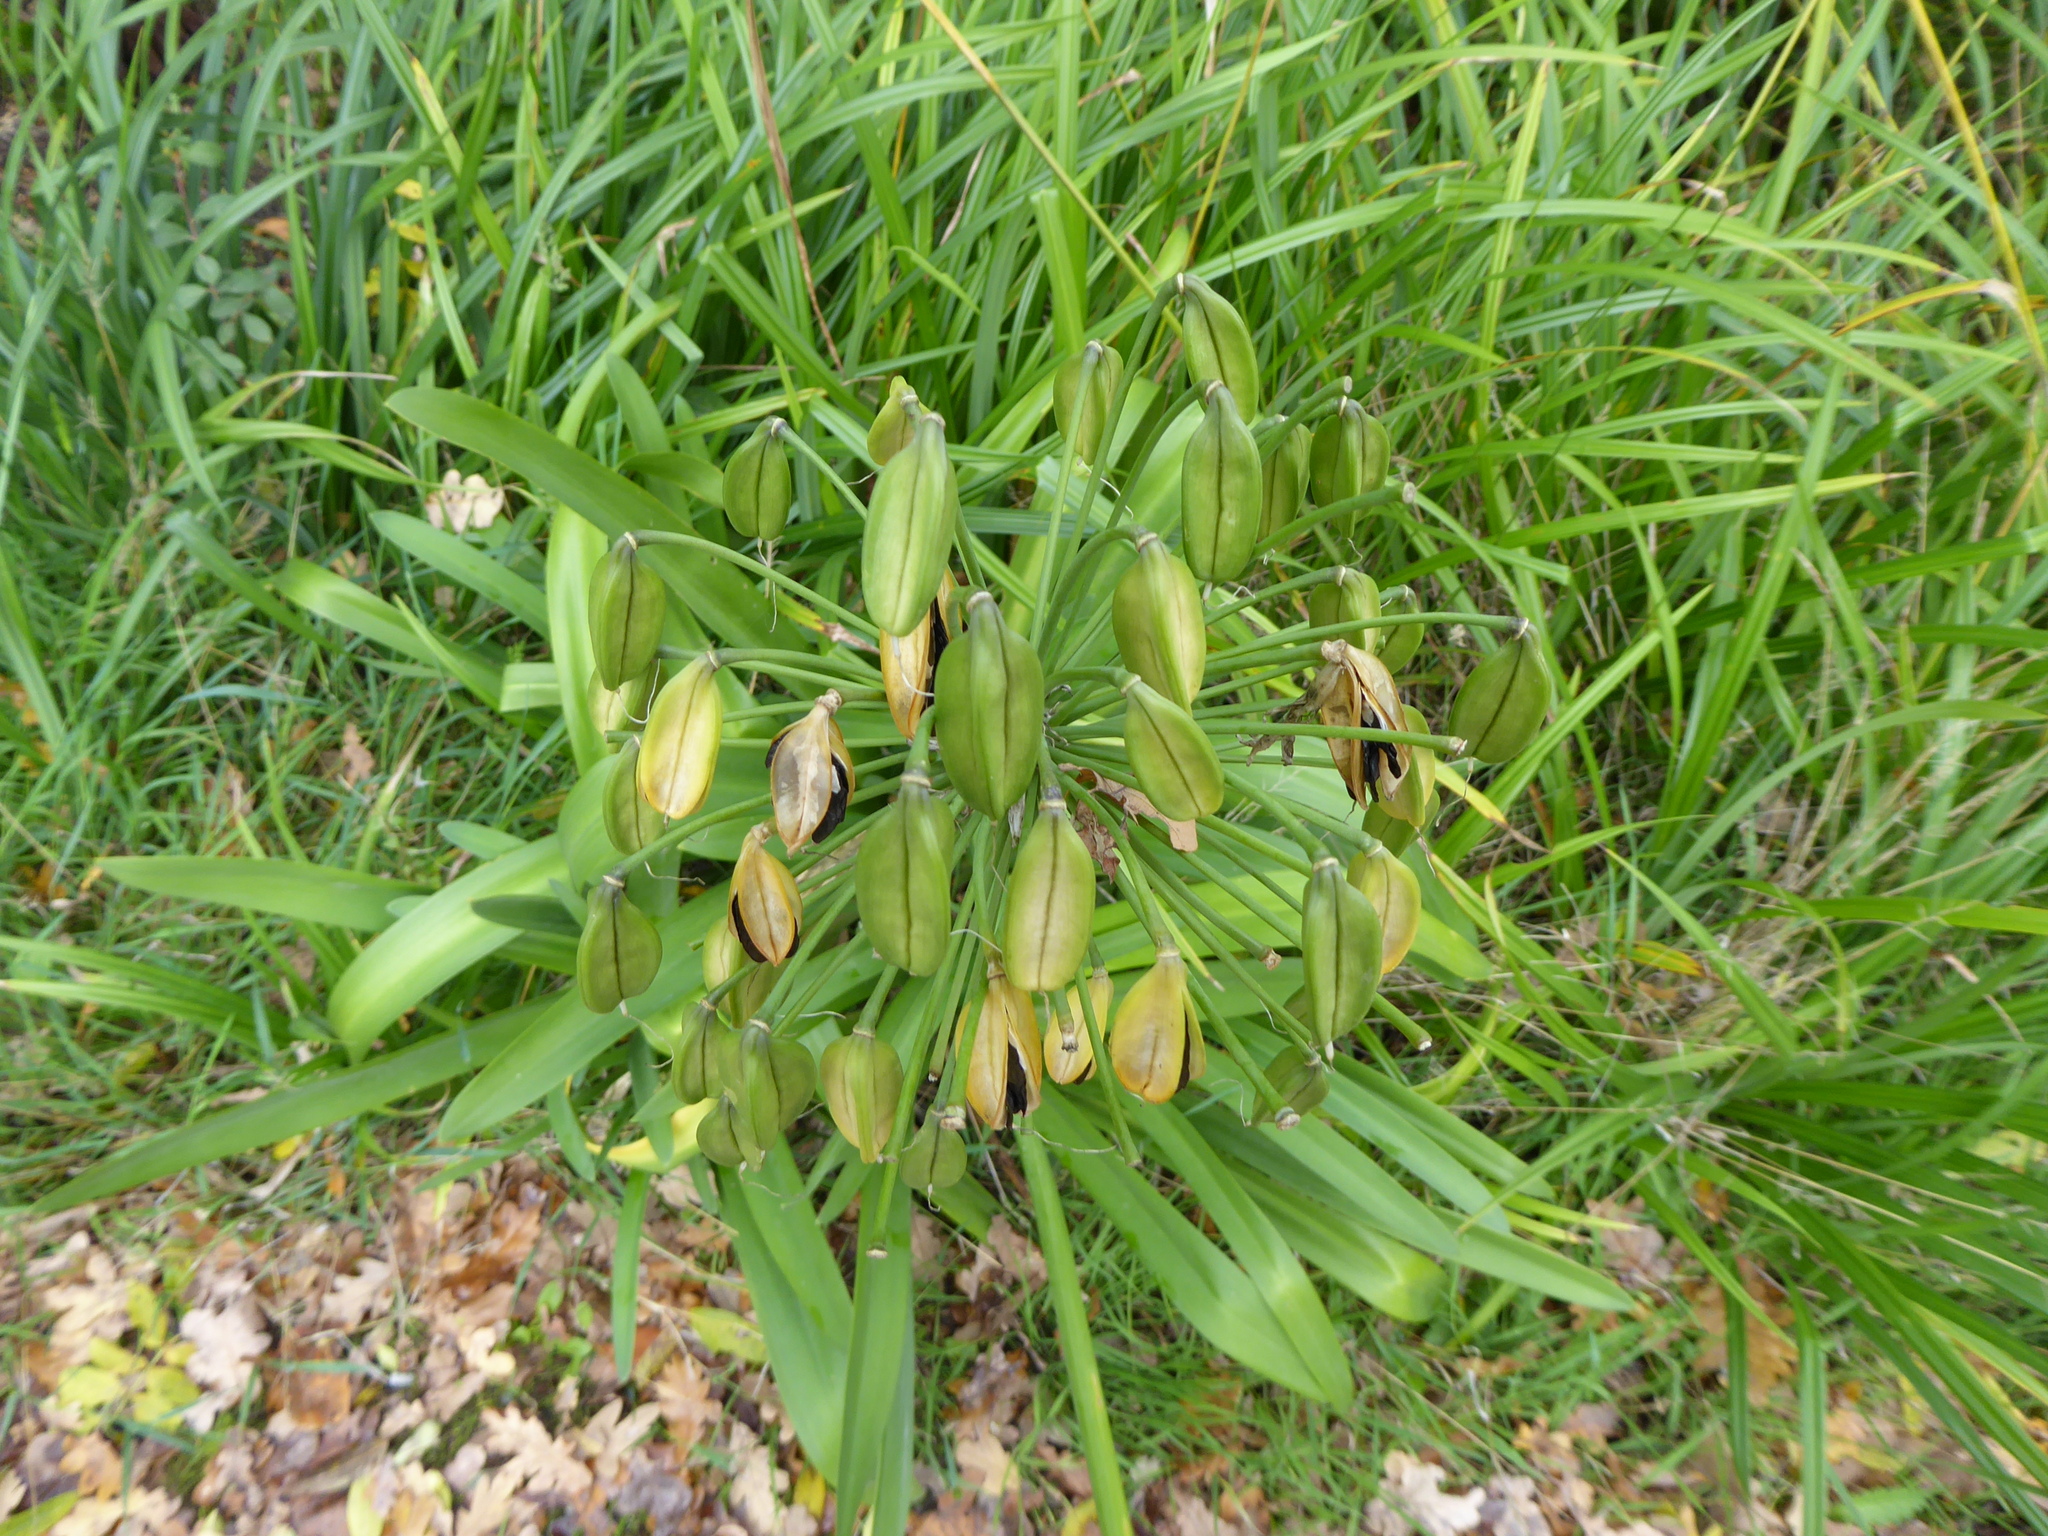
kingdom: Plantae
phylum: Tracheophyta
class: Liliopsida
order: Asparagales
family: Amaryllidaceae
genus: Agapanthus
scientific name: Agapanthus praecox
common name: African-lily
